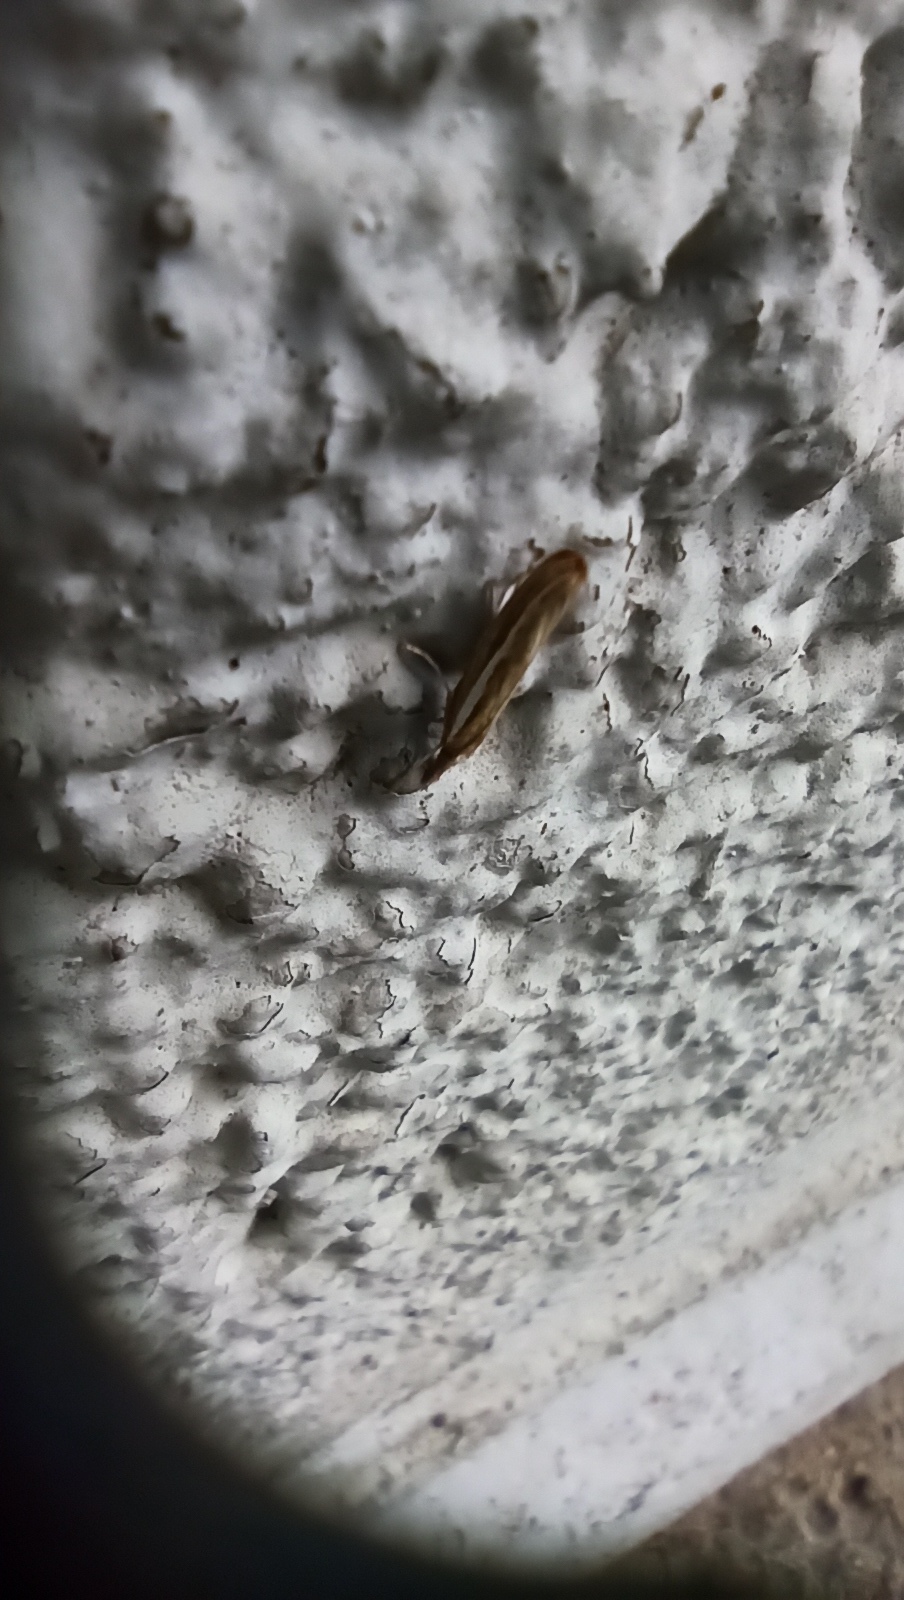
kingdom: Animalia
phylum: Arthropoda
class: Insecta
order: Lepidoptera
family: Crambidae
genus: Agriphila
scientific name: Agriphila tristellus
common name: Common grass-veneer
